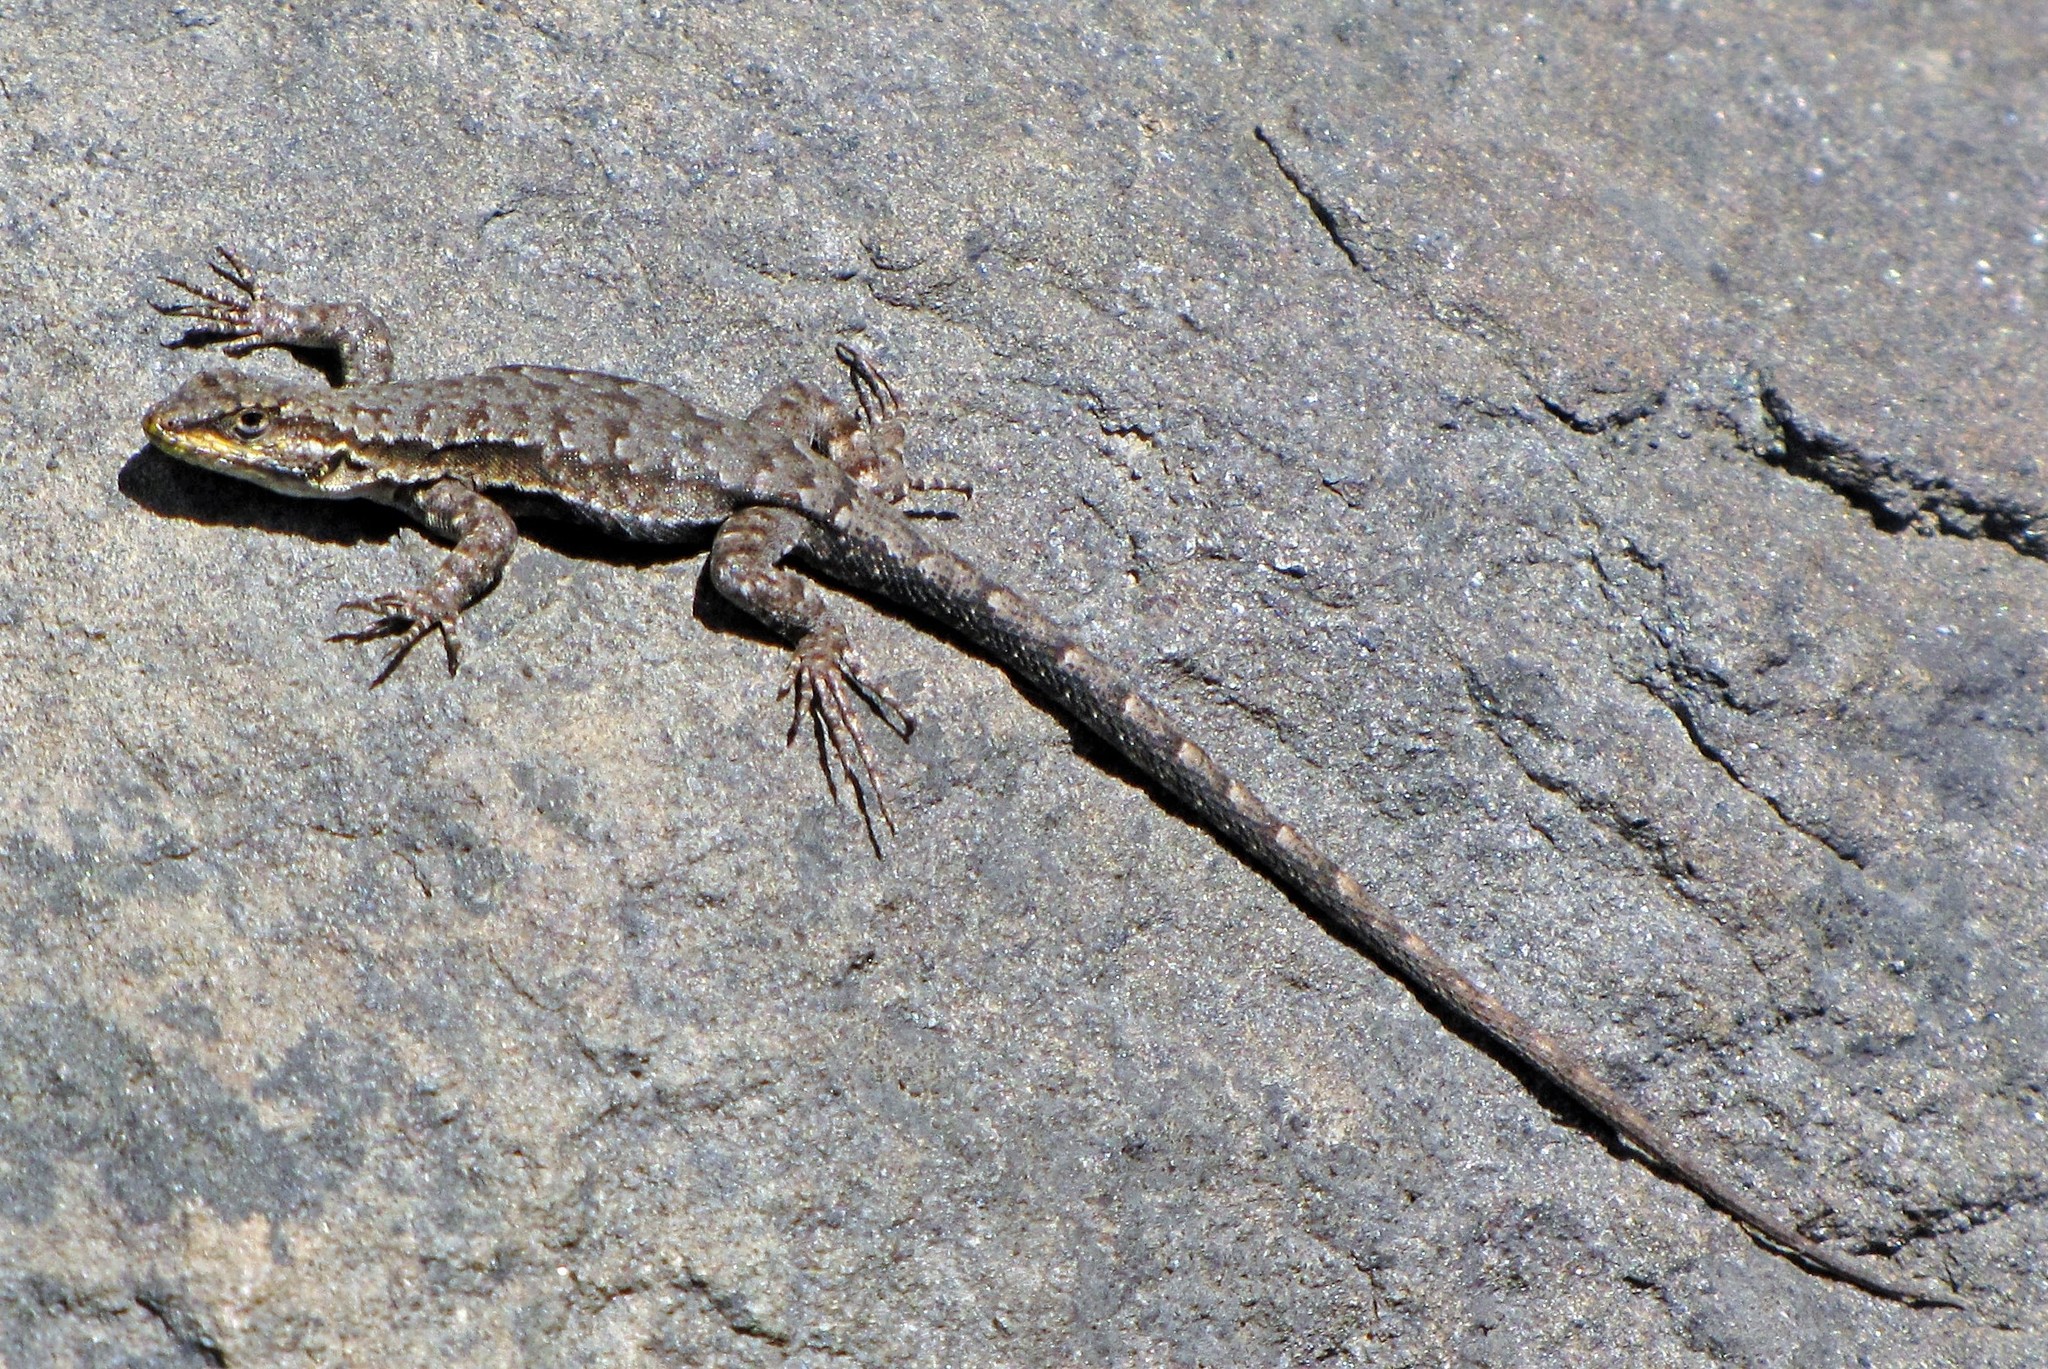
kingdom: Animalia
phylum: Chordata
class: Squamata
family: Liolaemidae
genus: Liolaemus
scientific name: Liolaemus tenuis
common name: Thin tree iguana
